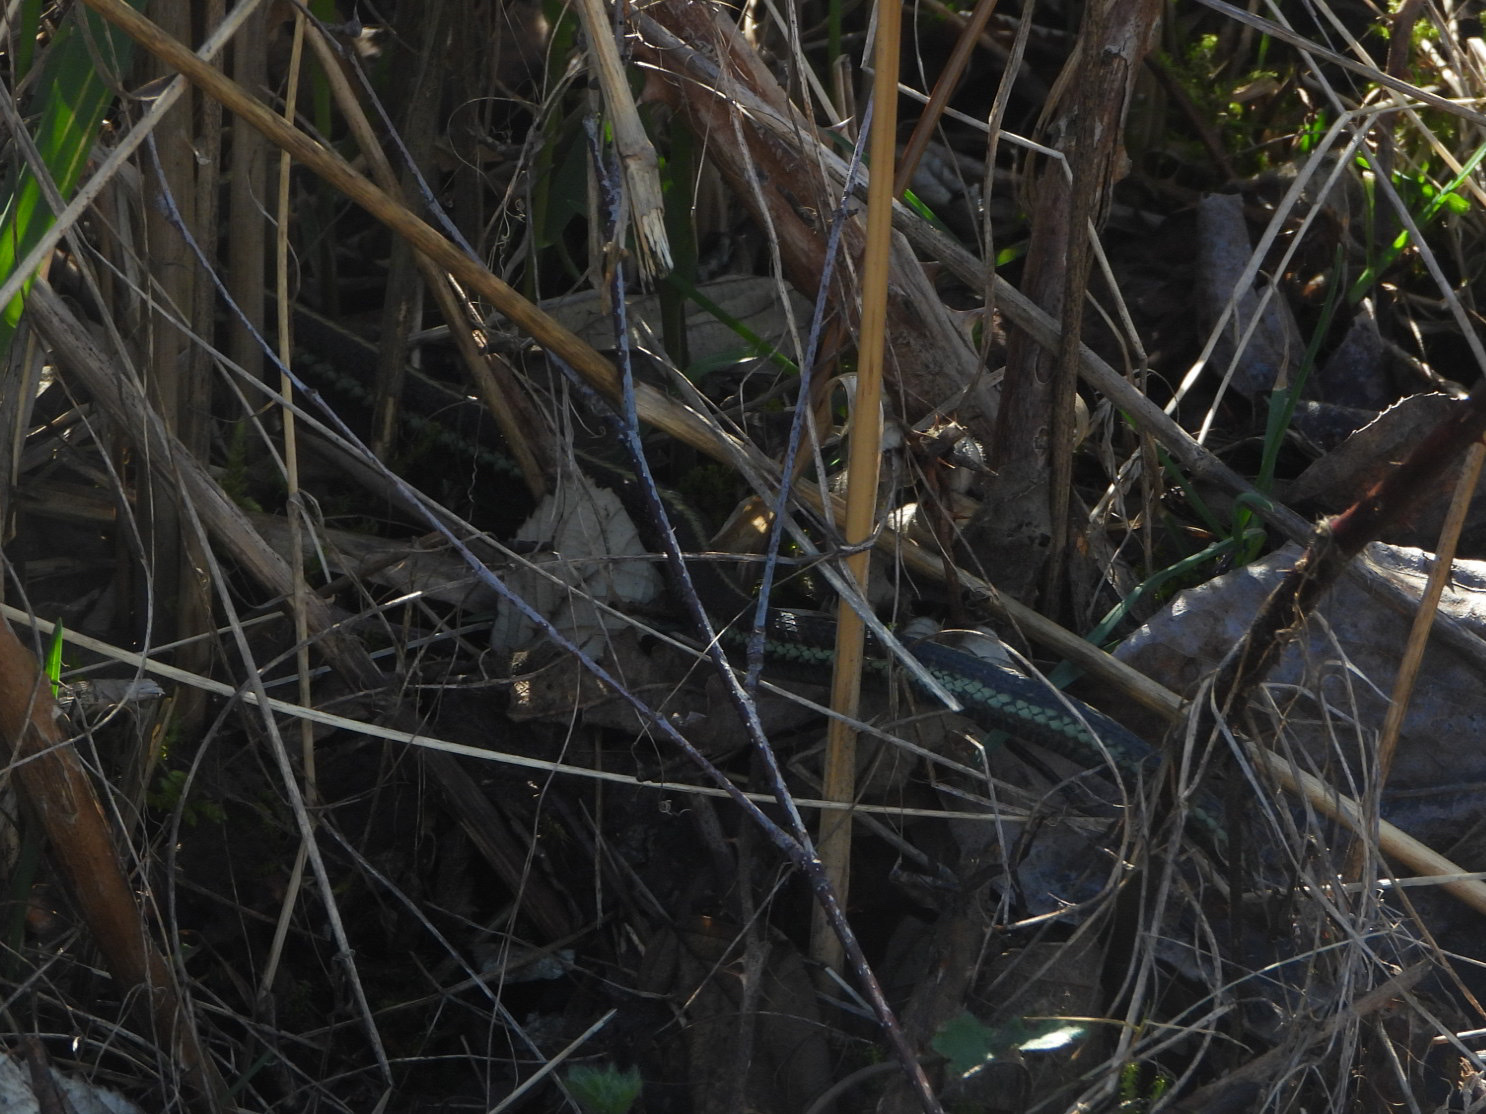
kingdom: Animalia
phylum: Chordata
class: Squamata
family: Colubridae
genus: Thamnophis
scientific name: Thamnophis sirtalis
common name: Common garter snake
